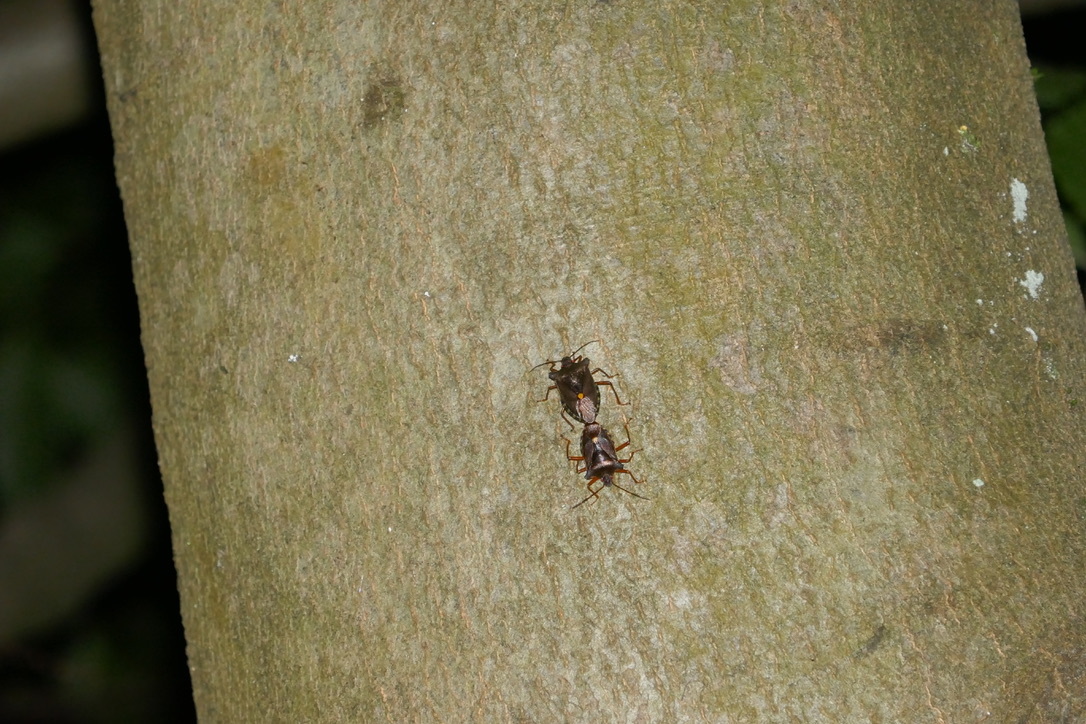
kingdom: Animalia
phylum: Arthropoda
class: Insecta
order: Hemiptera
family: Pentatomidae
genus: Pentatoma
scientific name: Pentatoma rufipes
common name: Forest bug
